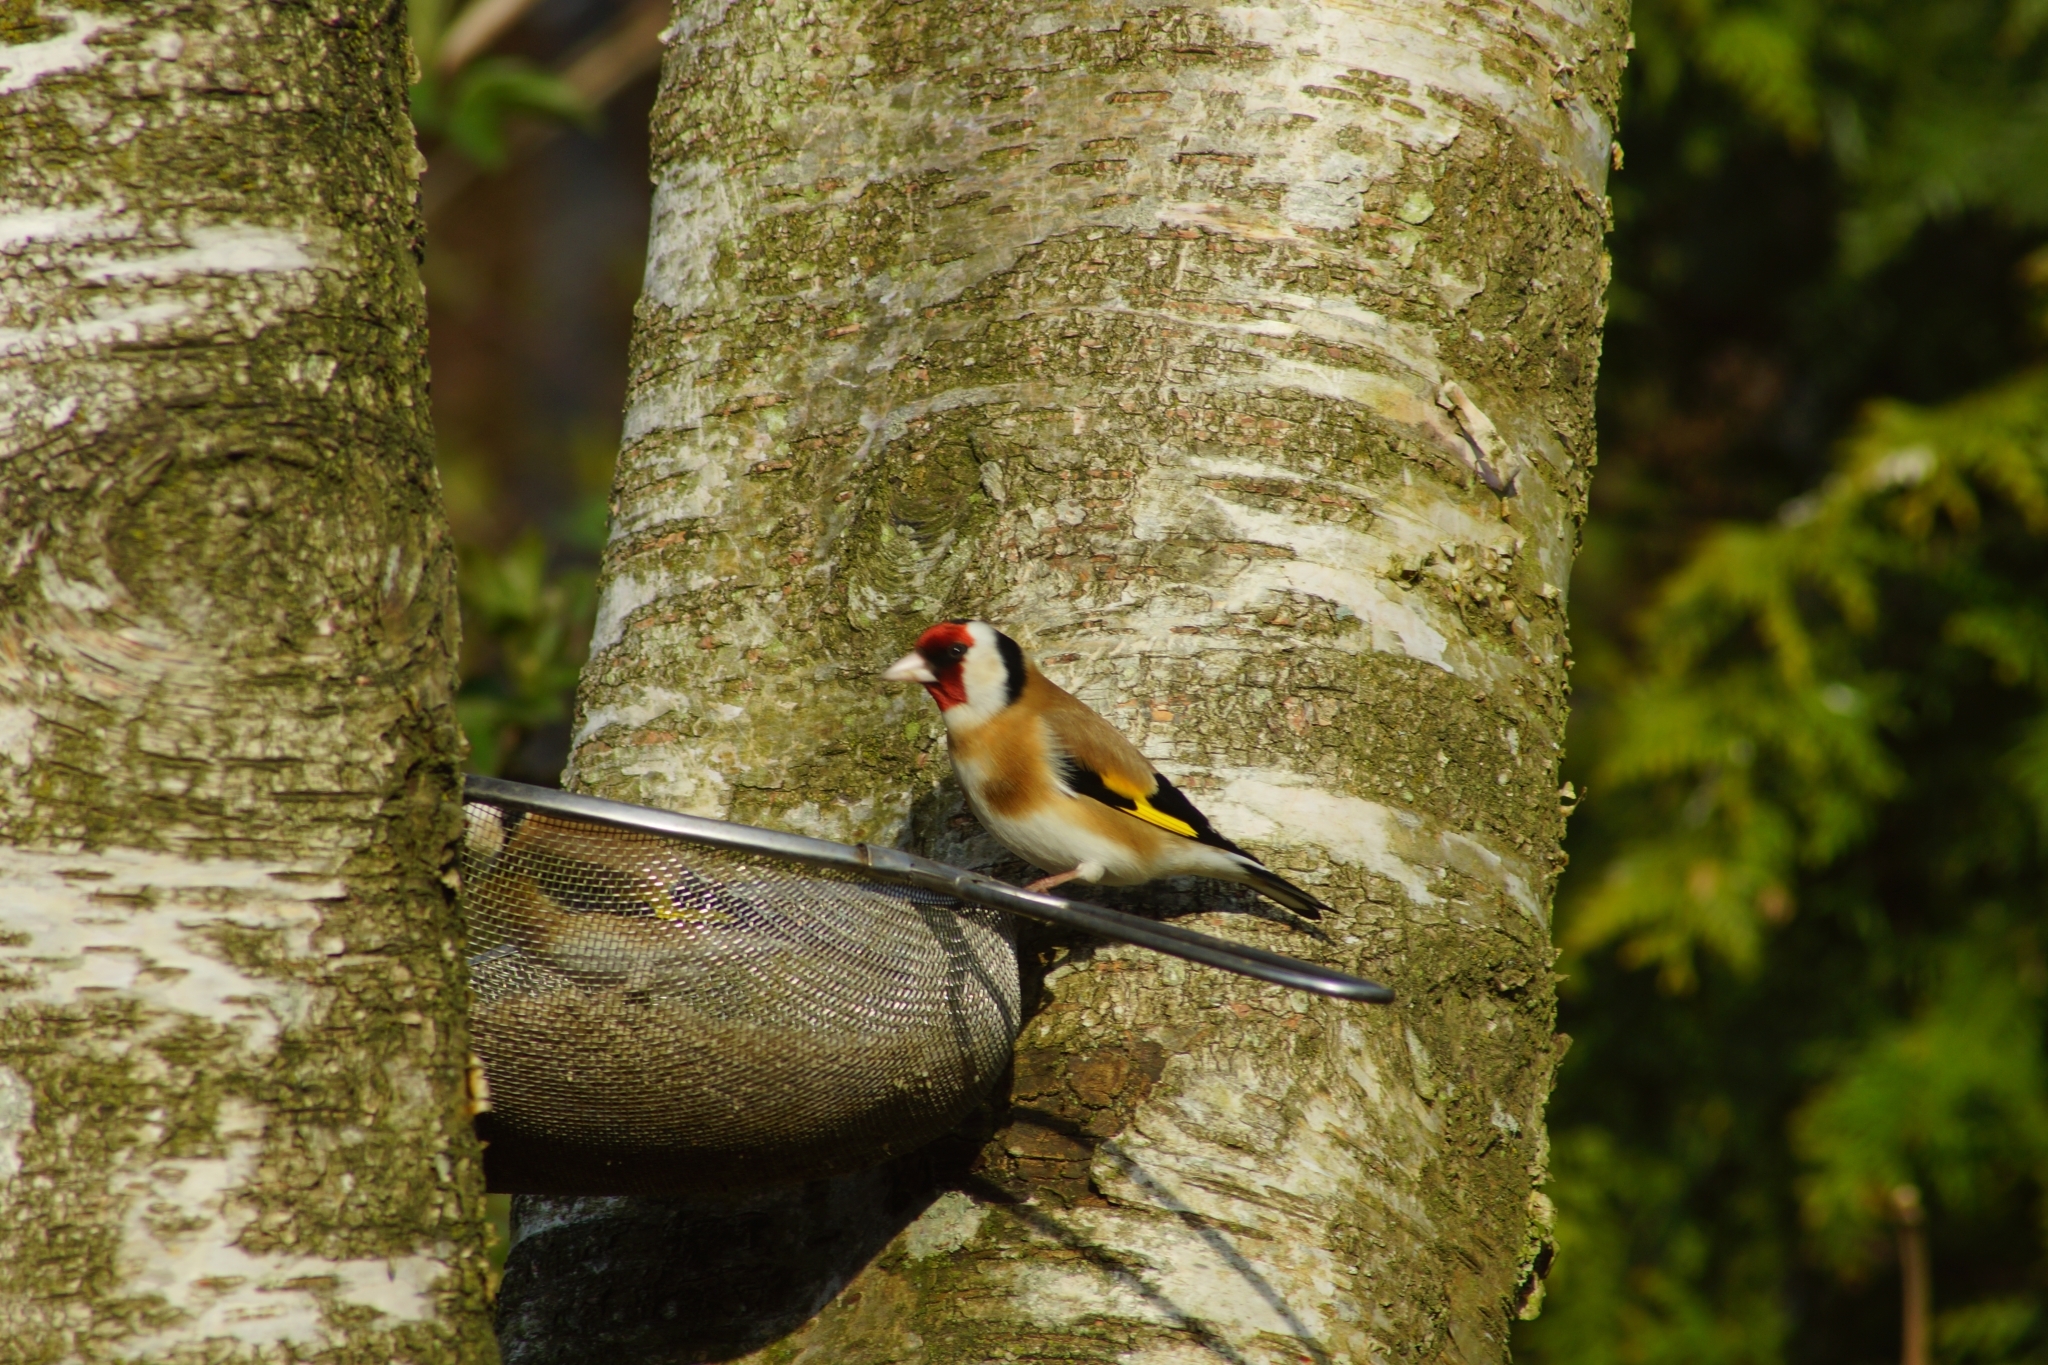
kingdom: Animalia
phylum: Chordata
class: Aves
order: Passeriformes
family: Fringillidae
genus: Carduelis
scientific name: Carduelis carduelis
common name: European goldfinch
